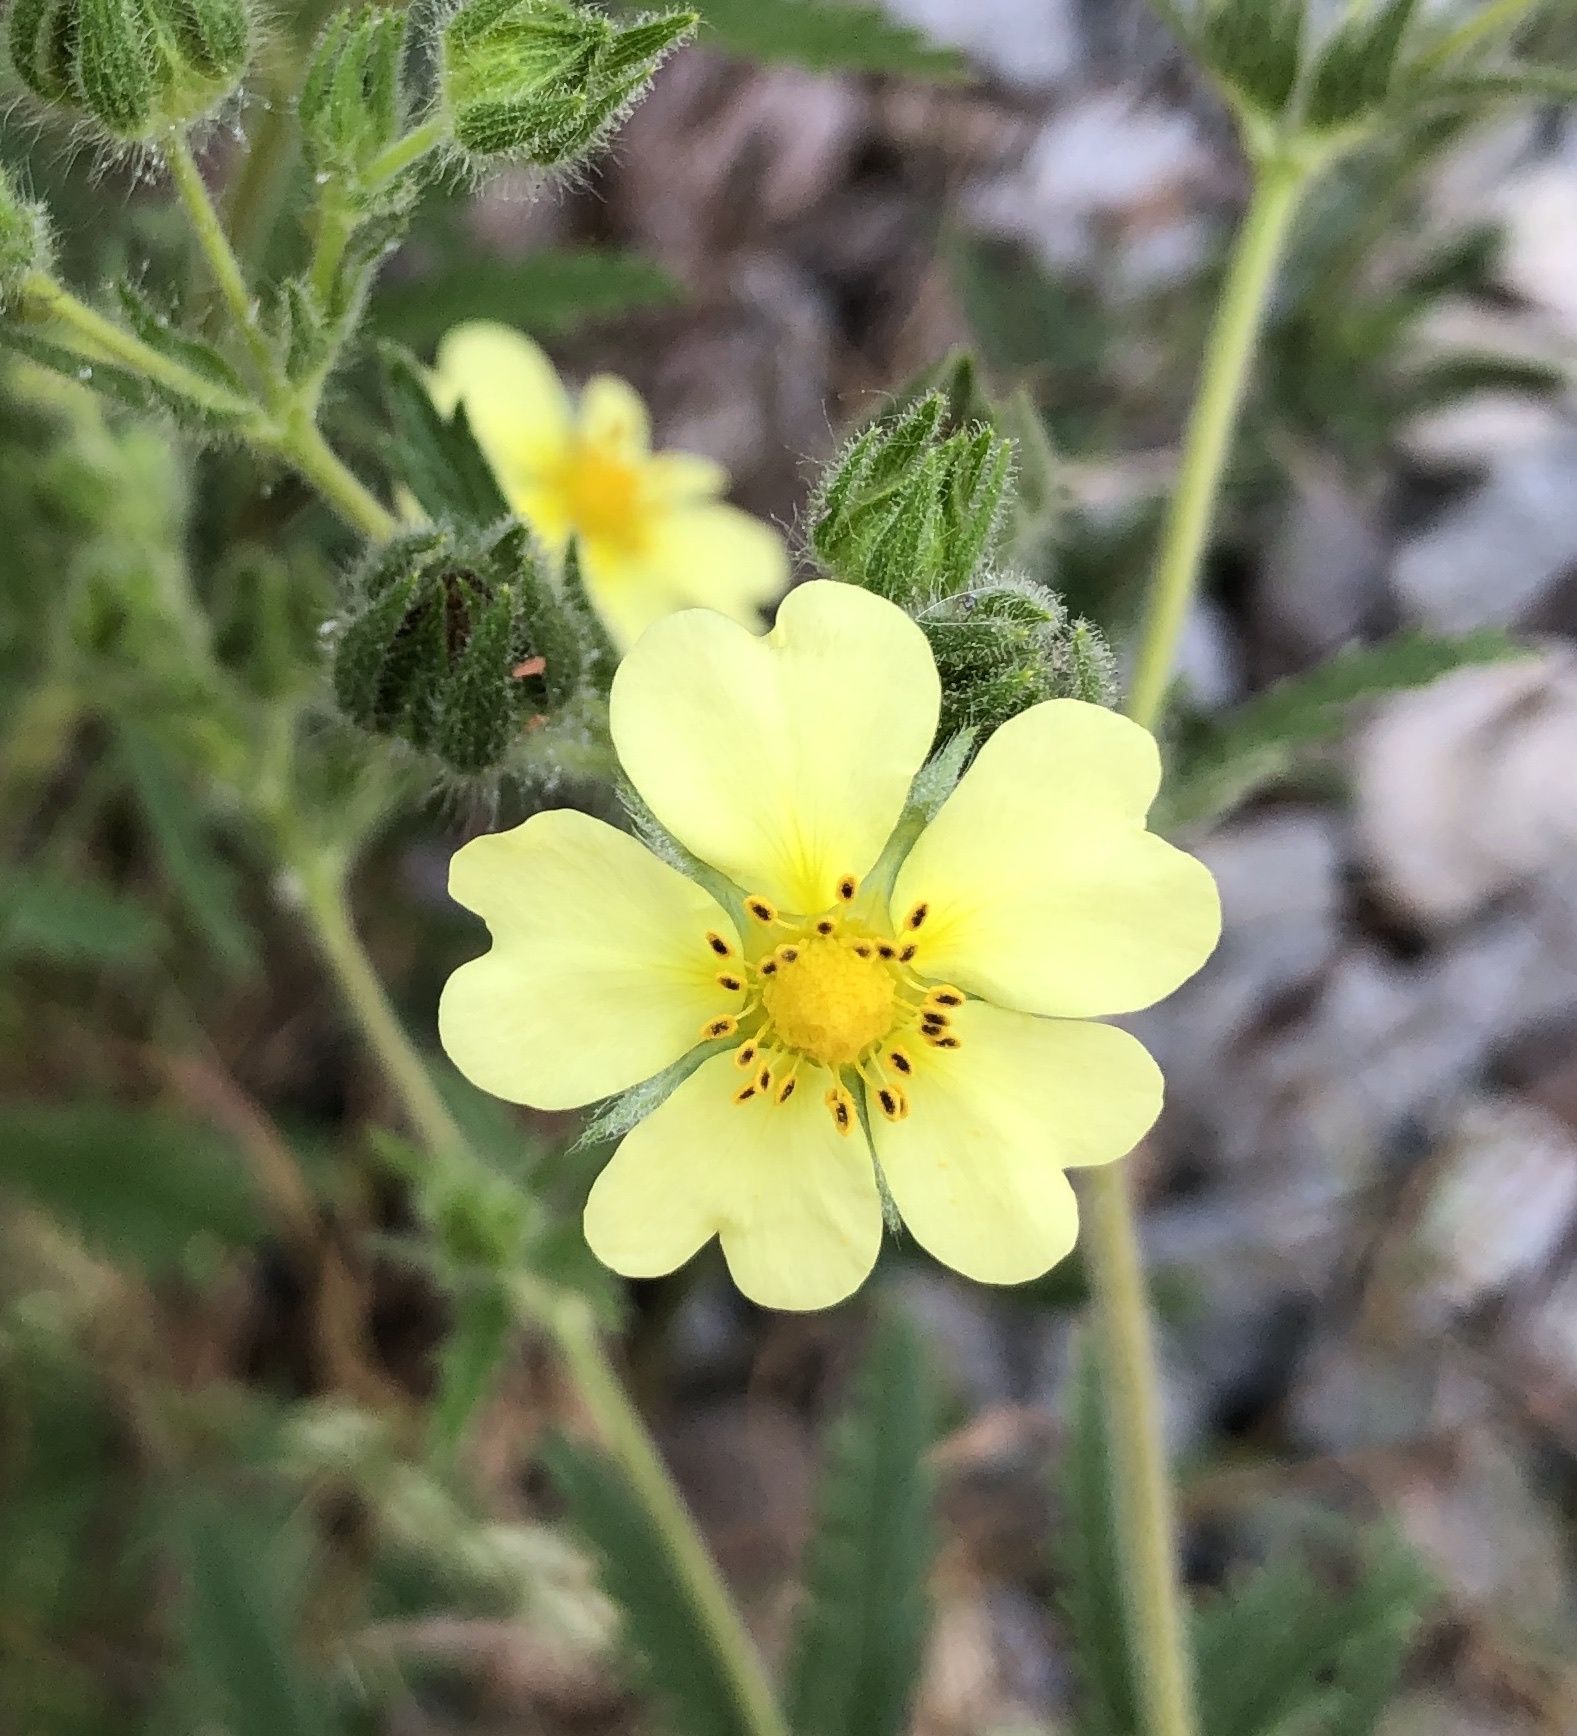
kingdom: Plantae
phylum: Tracheophyta
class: Magnoliopsida
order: Rosales
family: Rosaceae
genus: Potentilla
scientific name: Potentilla recta
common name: Sulphur cinquefoil
